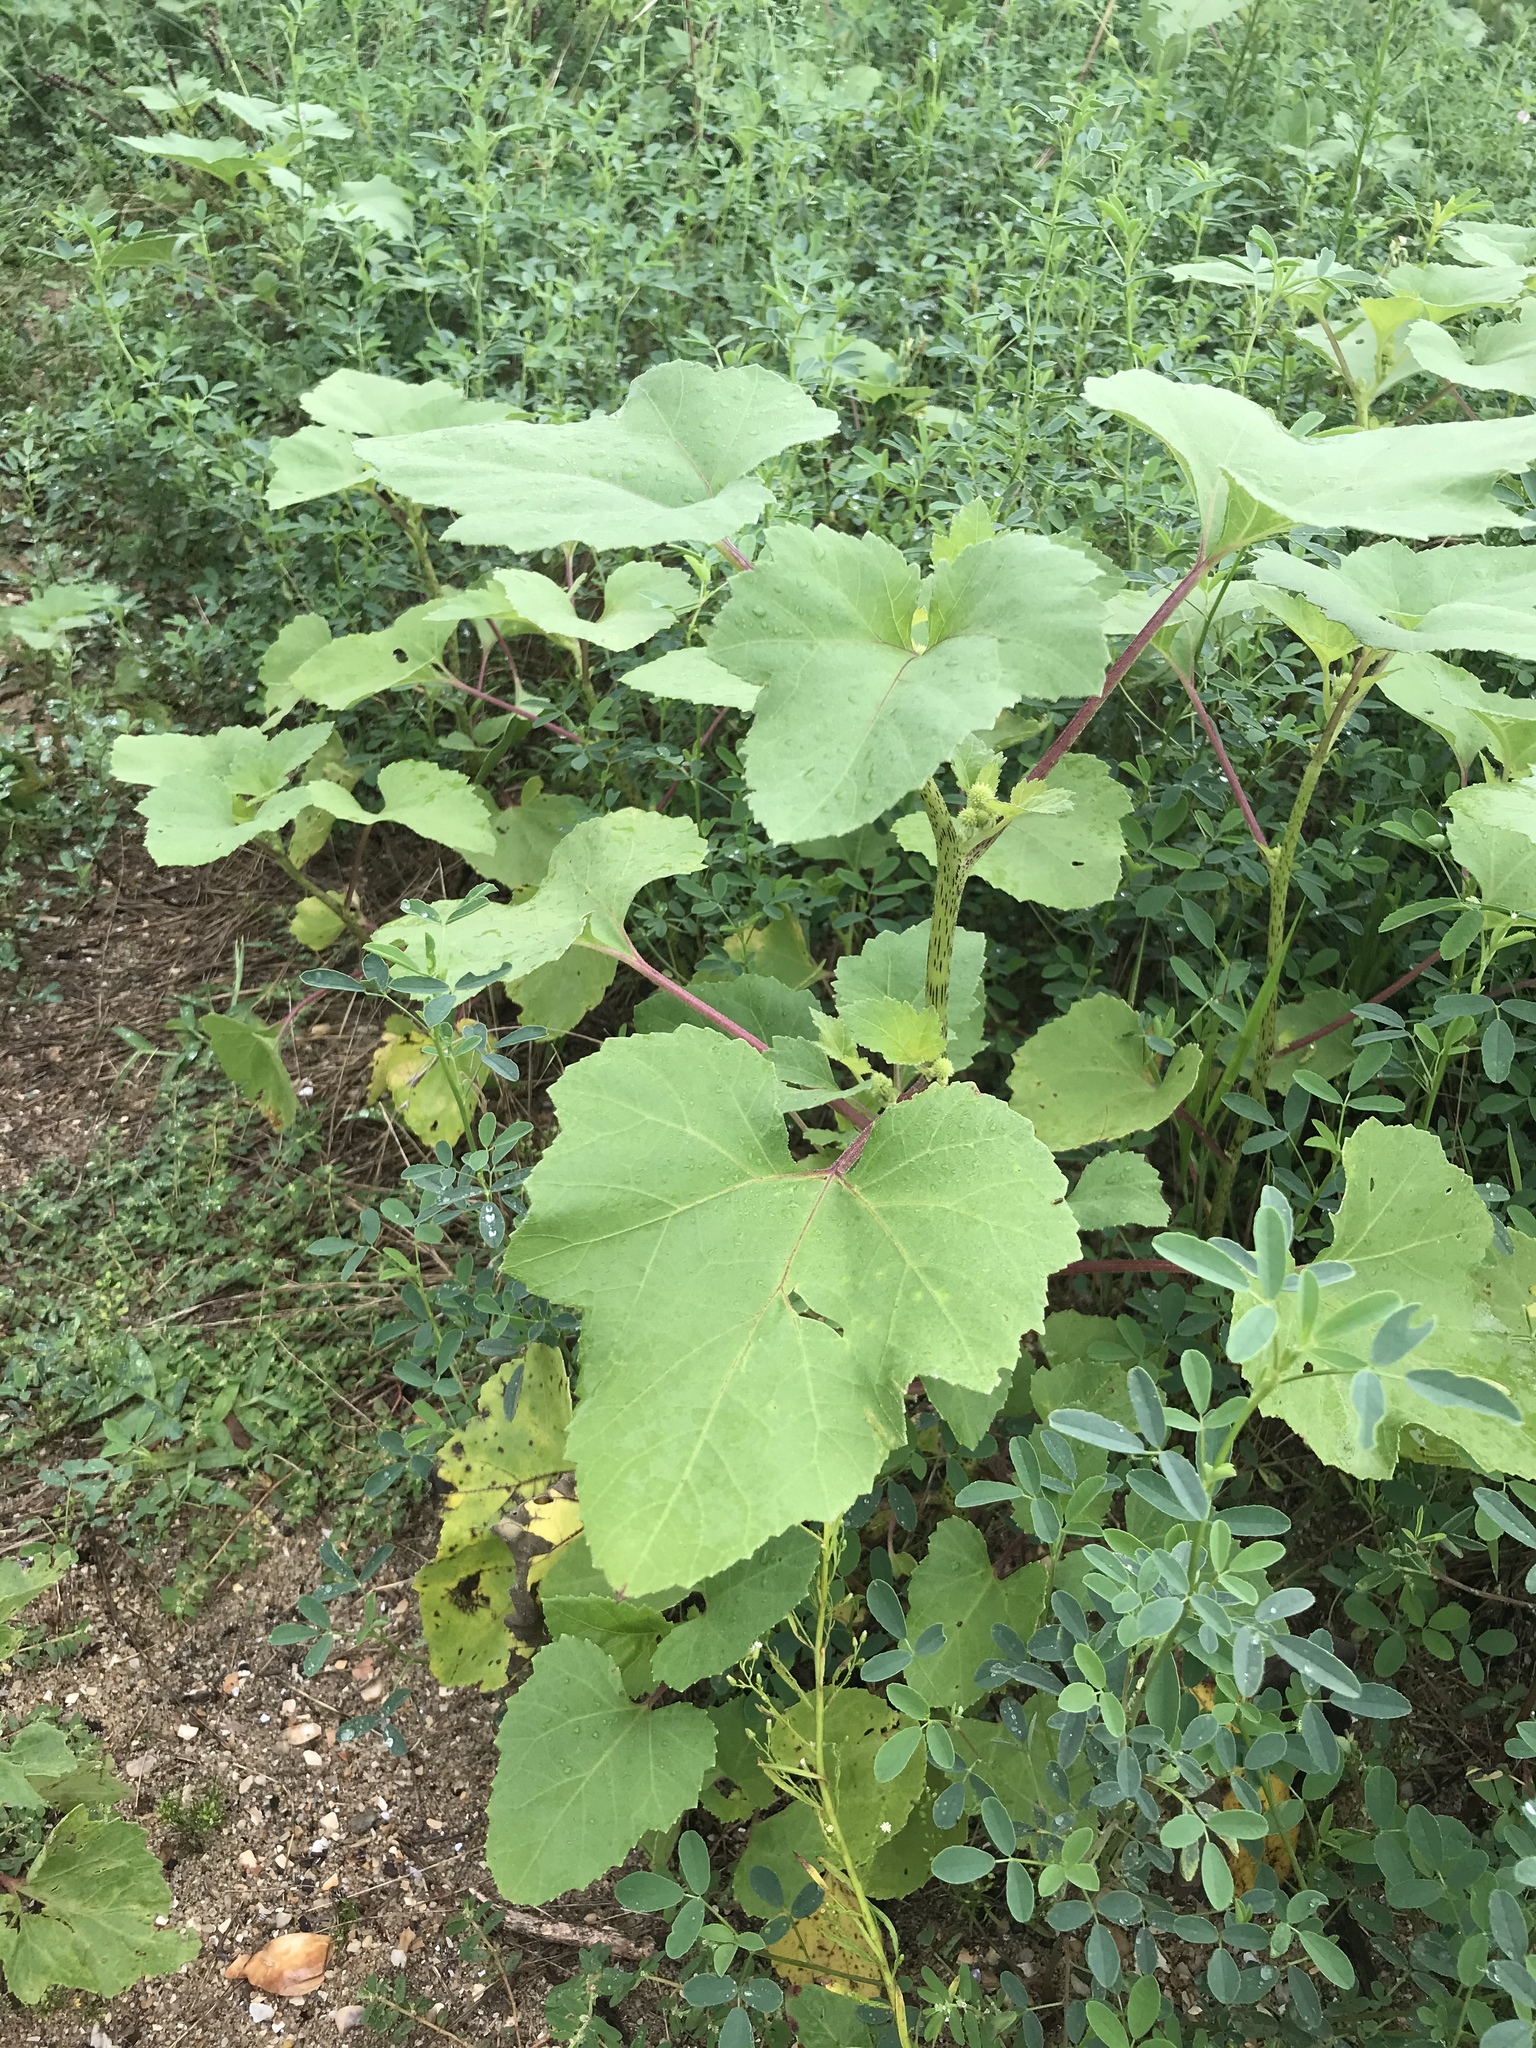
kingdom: Plantae
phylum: Tracheophyta
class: Magnoliopsida
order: Asterales
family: Asteraceae
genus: Xanthium
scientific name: Xanthium strumarium
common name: Rough cocklebur
